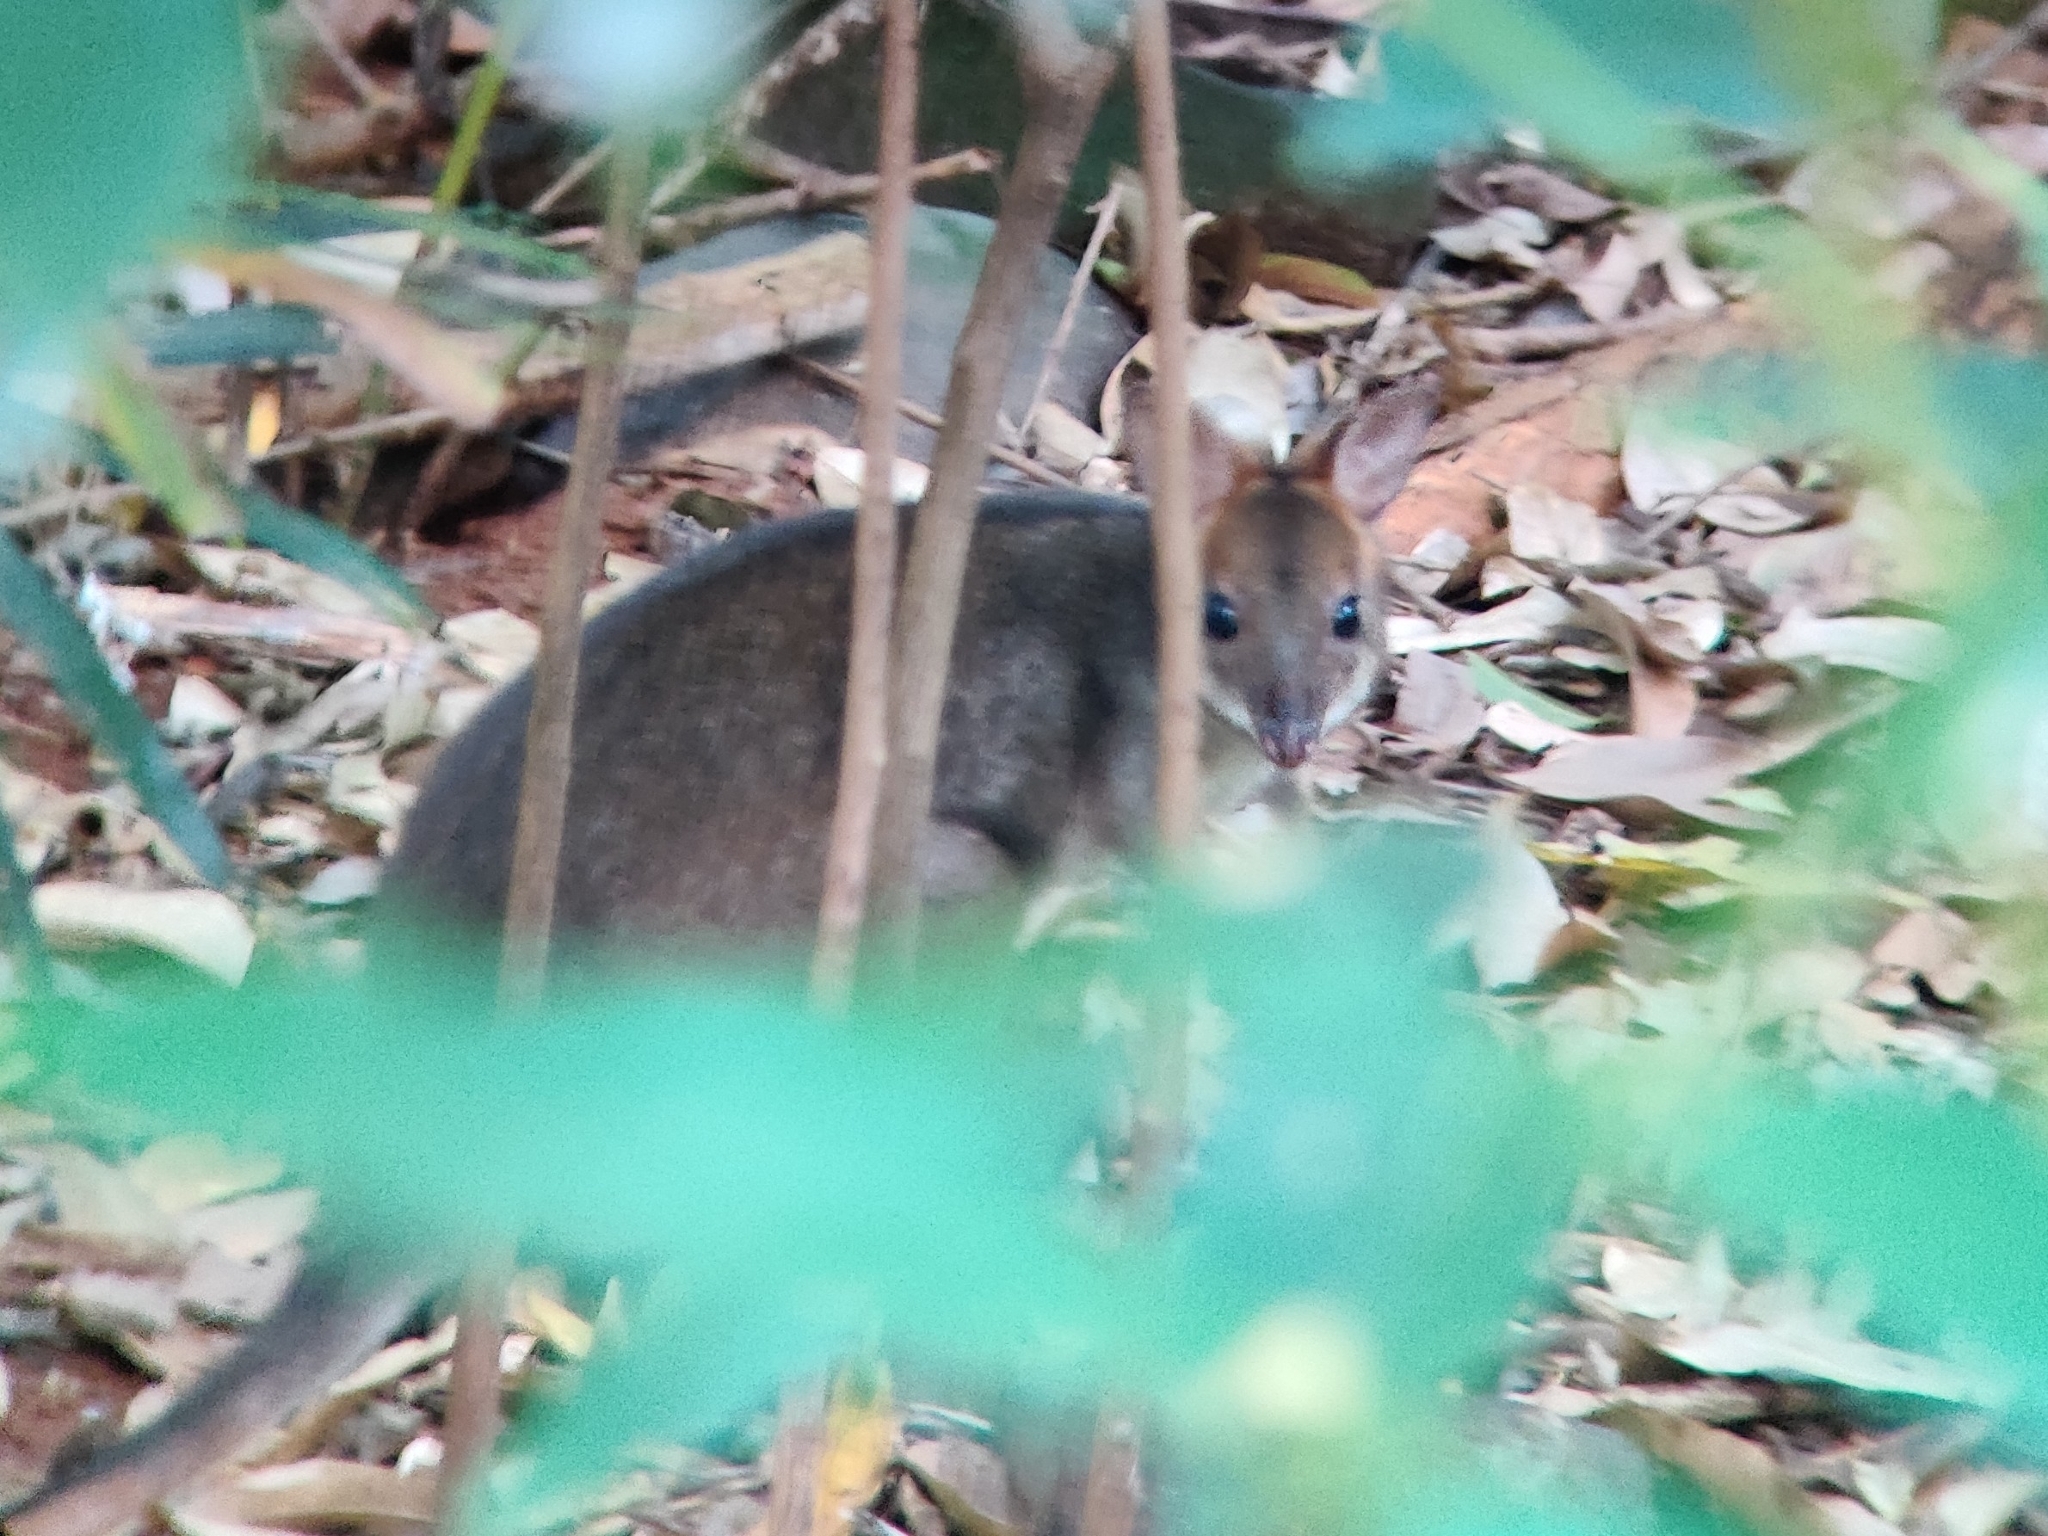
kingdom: Animalia
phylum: Chordata
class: Mammalia
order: Diprotodontia
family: Macropodidae
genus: Thylogale
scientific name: Thylogale stigmatica
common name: Red-legged pademelon
